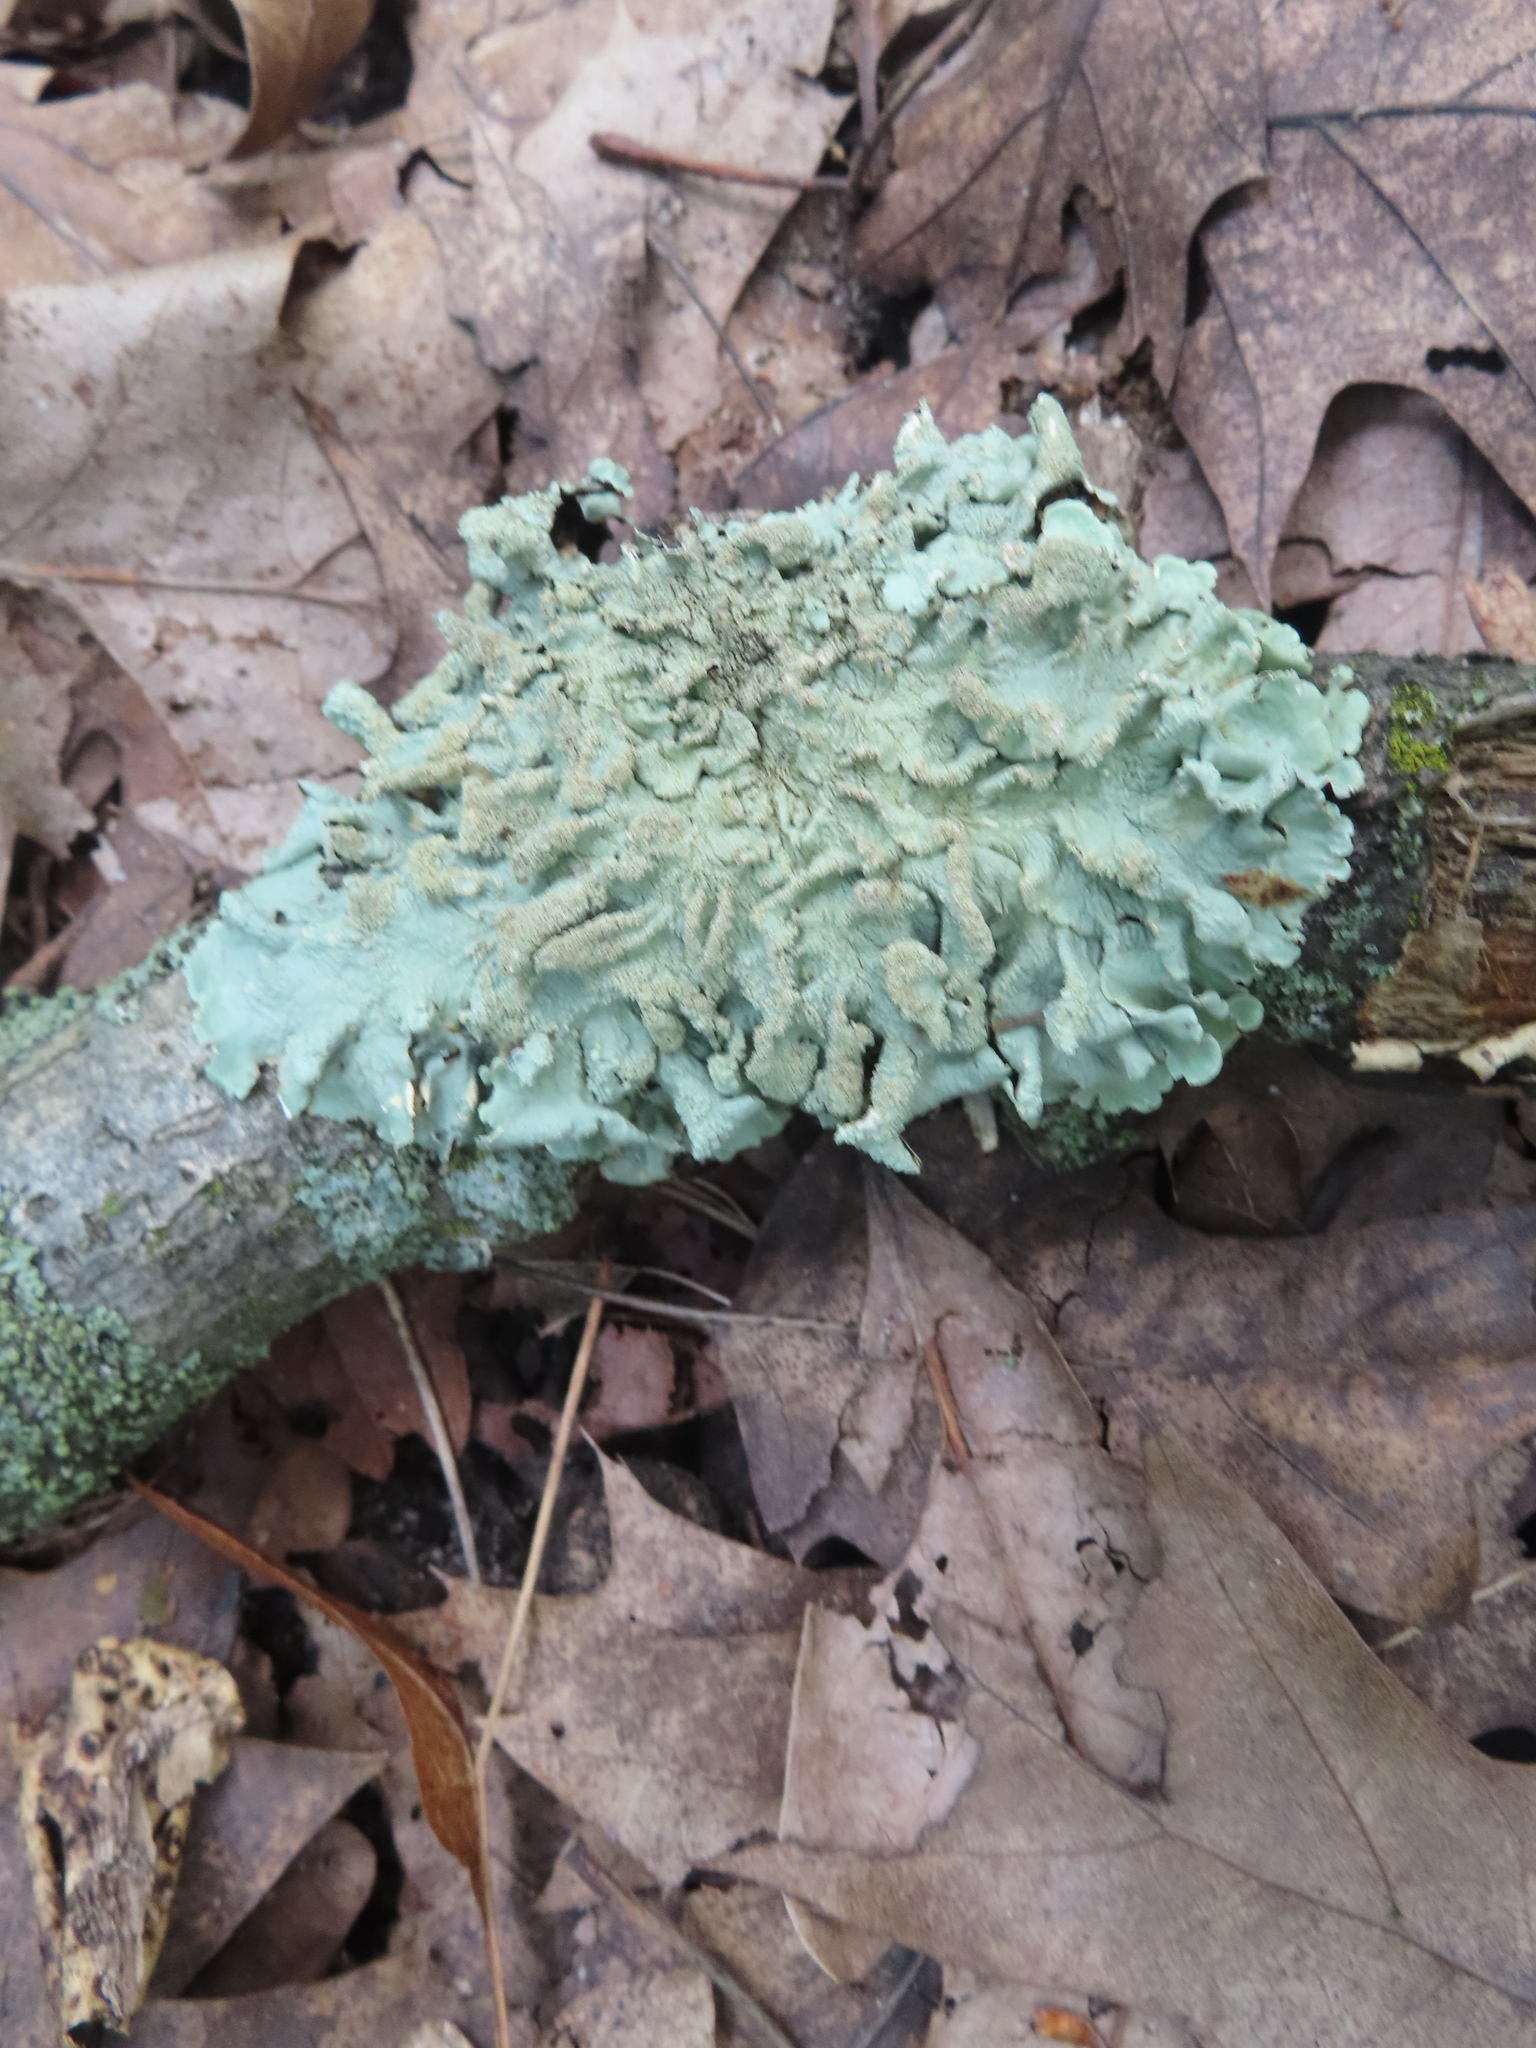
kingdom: Fungi
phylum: Ascomycota
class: Lecanoromycetes
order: Lecanorales
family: Parmeliaceae
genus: Flavoparmelia
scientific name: Flavoparmelia caperata
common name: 40-mile per hour lichen
